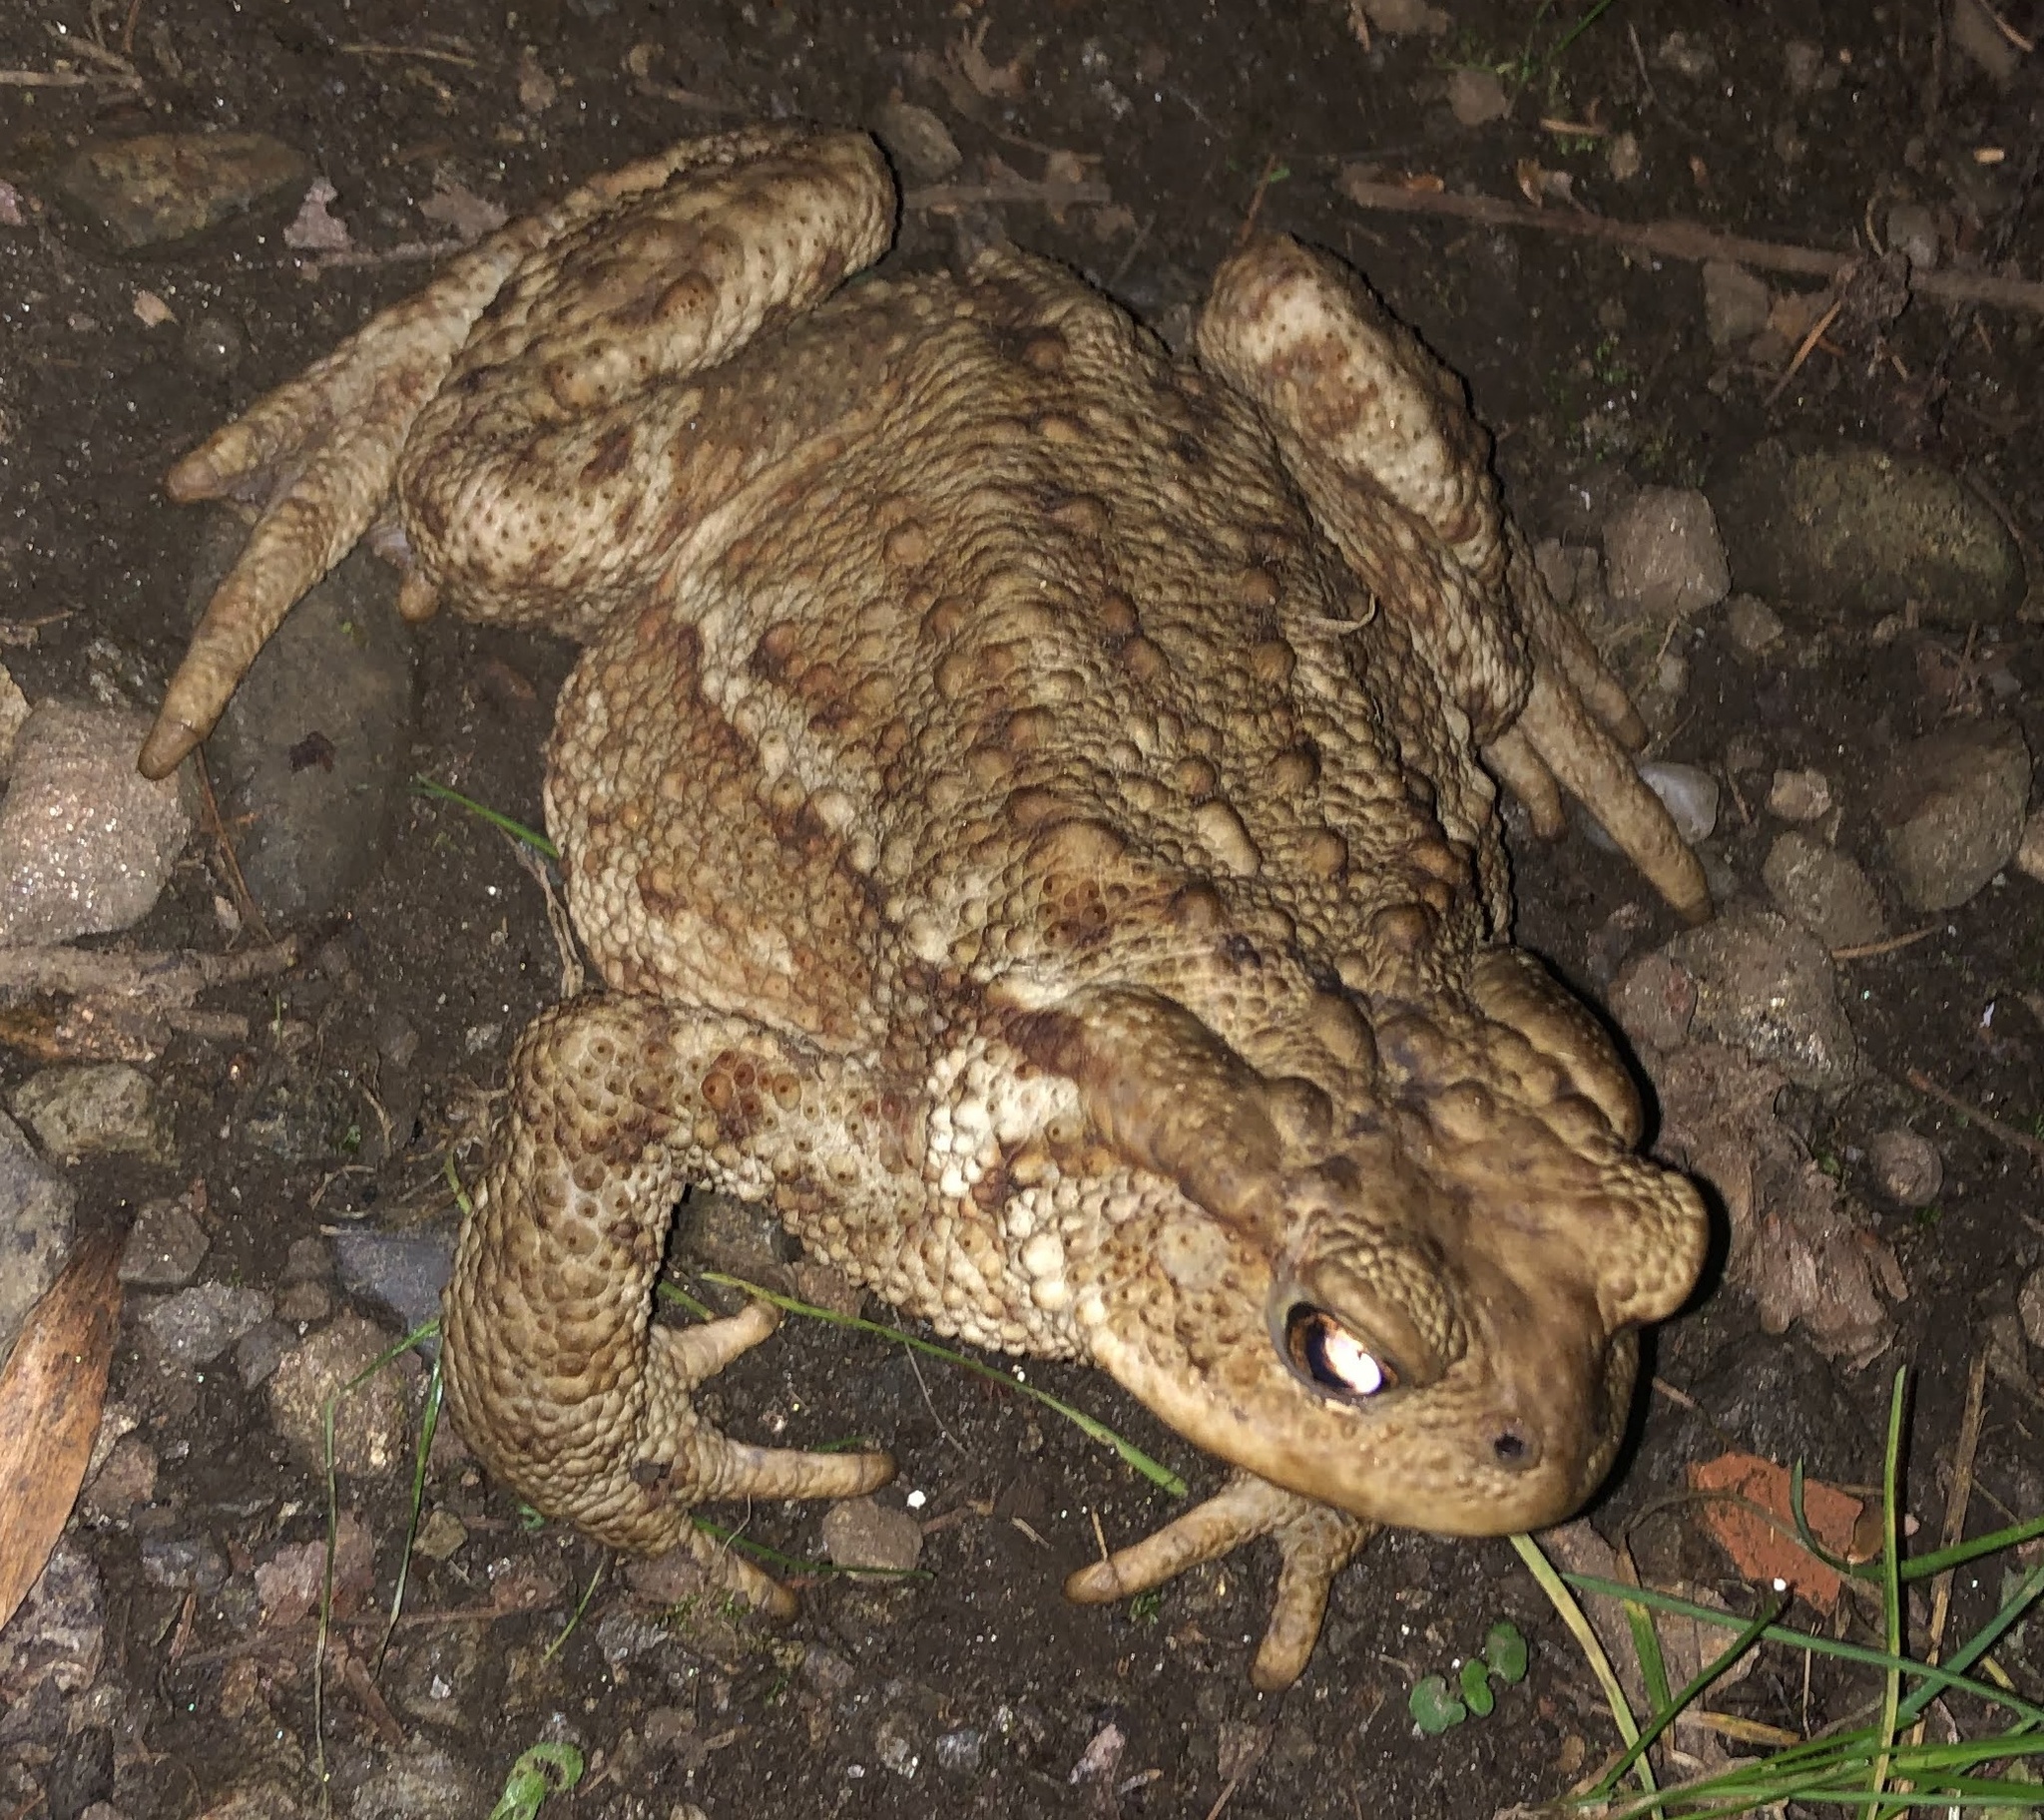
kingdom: Animalia
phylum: Chordata
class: Amphibia
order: Anura
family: Bufonidae
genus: Bufo
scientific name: Bufo bufo
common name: Common toad
